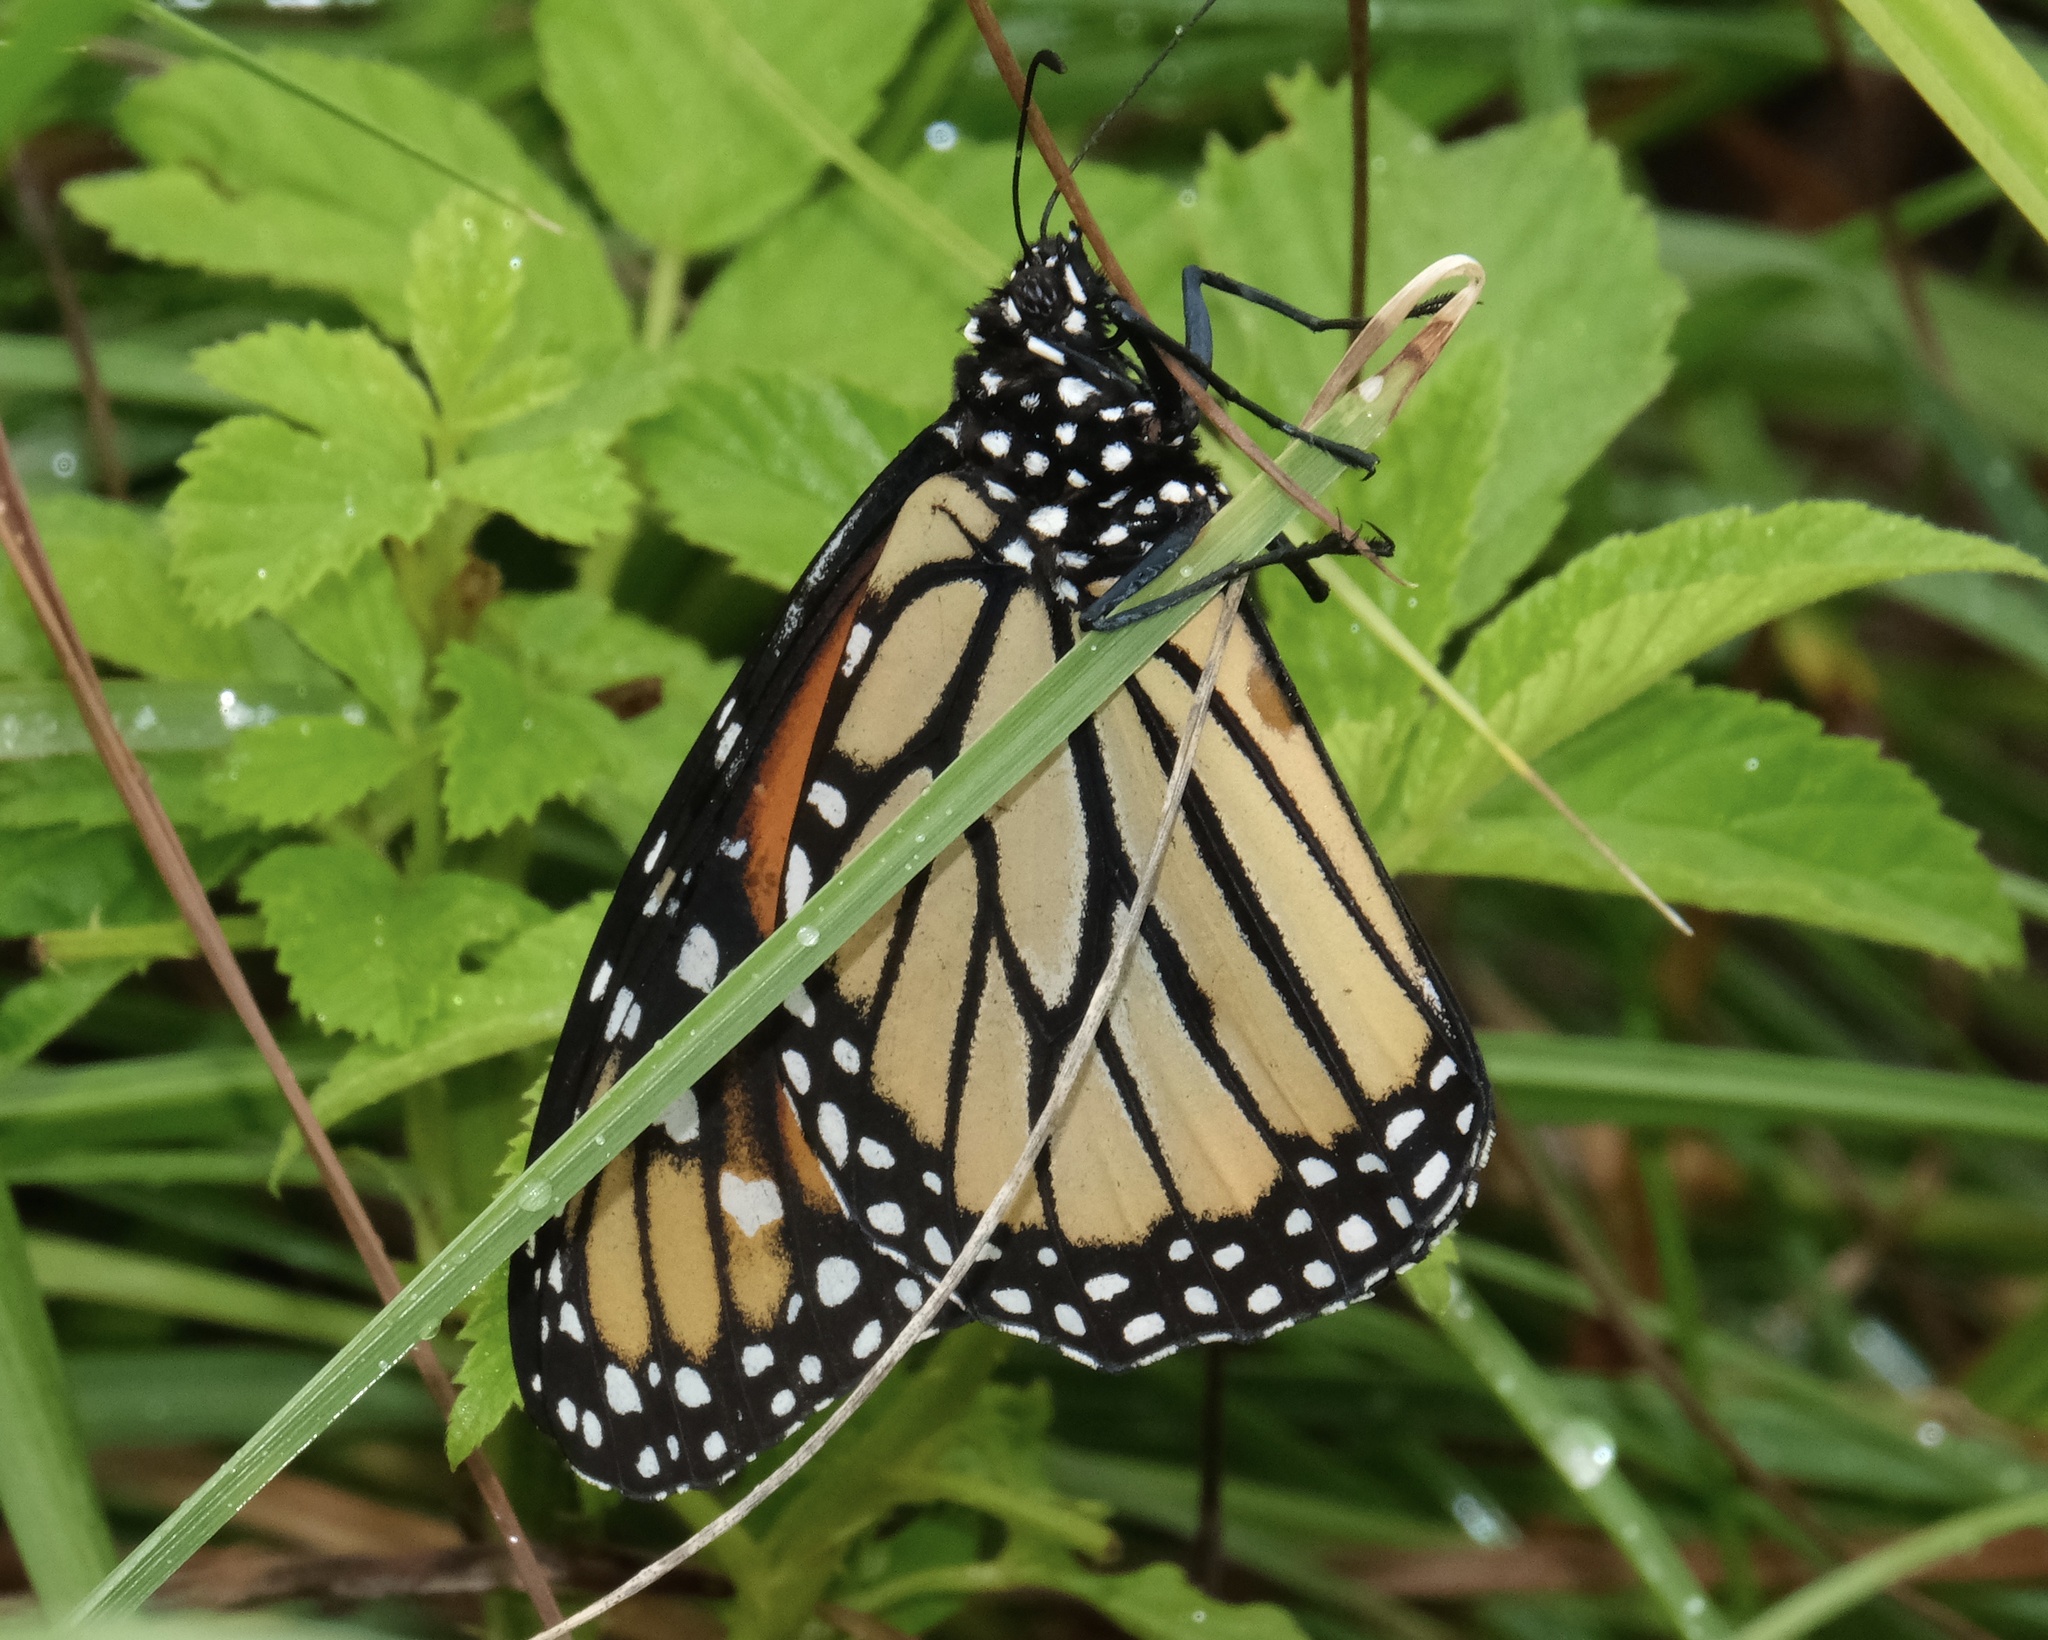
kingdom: Animalia
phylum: Arthropoda
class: Insecta
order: Lepidoptera
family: Nymphalidae
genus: Danaus
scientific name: Danaus plexippus
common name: Monarch
